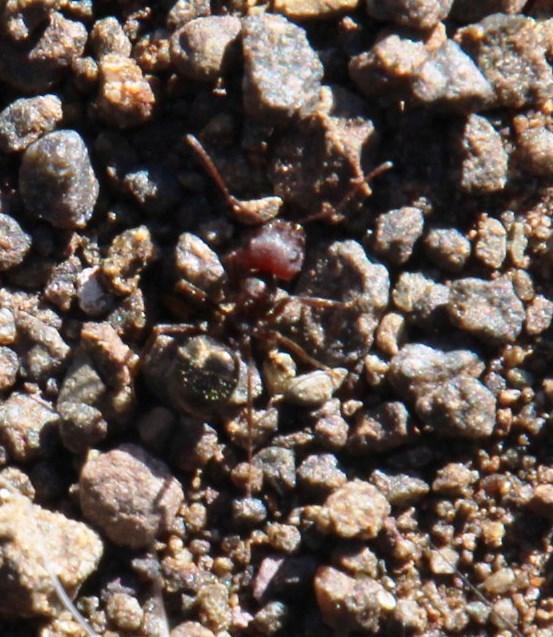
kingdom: Animalia
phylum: Arthropoda
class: Insecta
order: Hymenoptera
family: Formicidae
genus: Anoplolepis
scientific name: Anoplolepis steingroeveri
